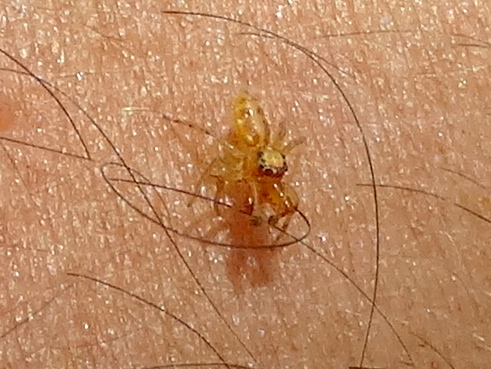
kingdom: Animalia
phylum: Arthropoda
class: Arachnida
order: Araneae
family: Salticidae
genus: Gypogyna
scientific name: Gypogyna
